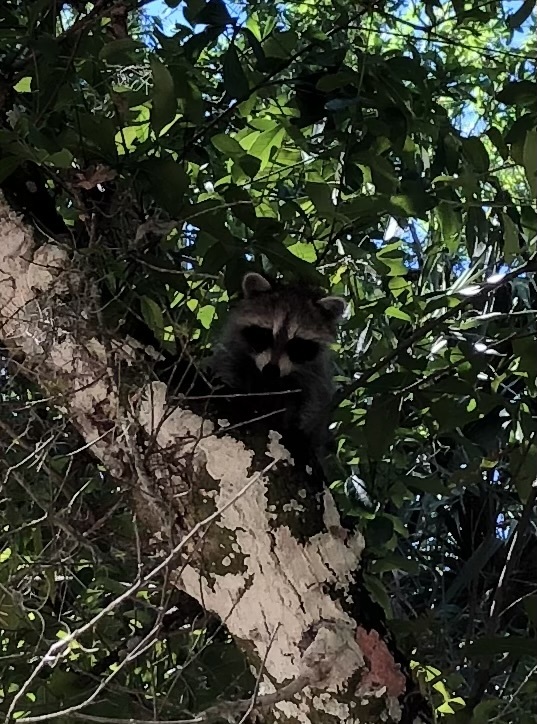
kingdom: Animalia
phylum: Chordata
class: Mammalia
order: Carnivora
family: Procyonidae
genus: Procyon
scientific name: Procyon lotor
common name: Raccoon
